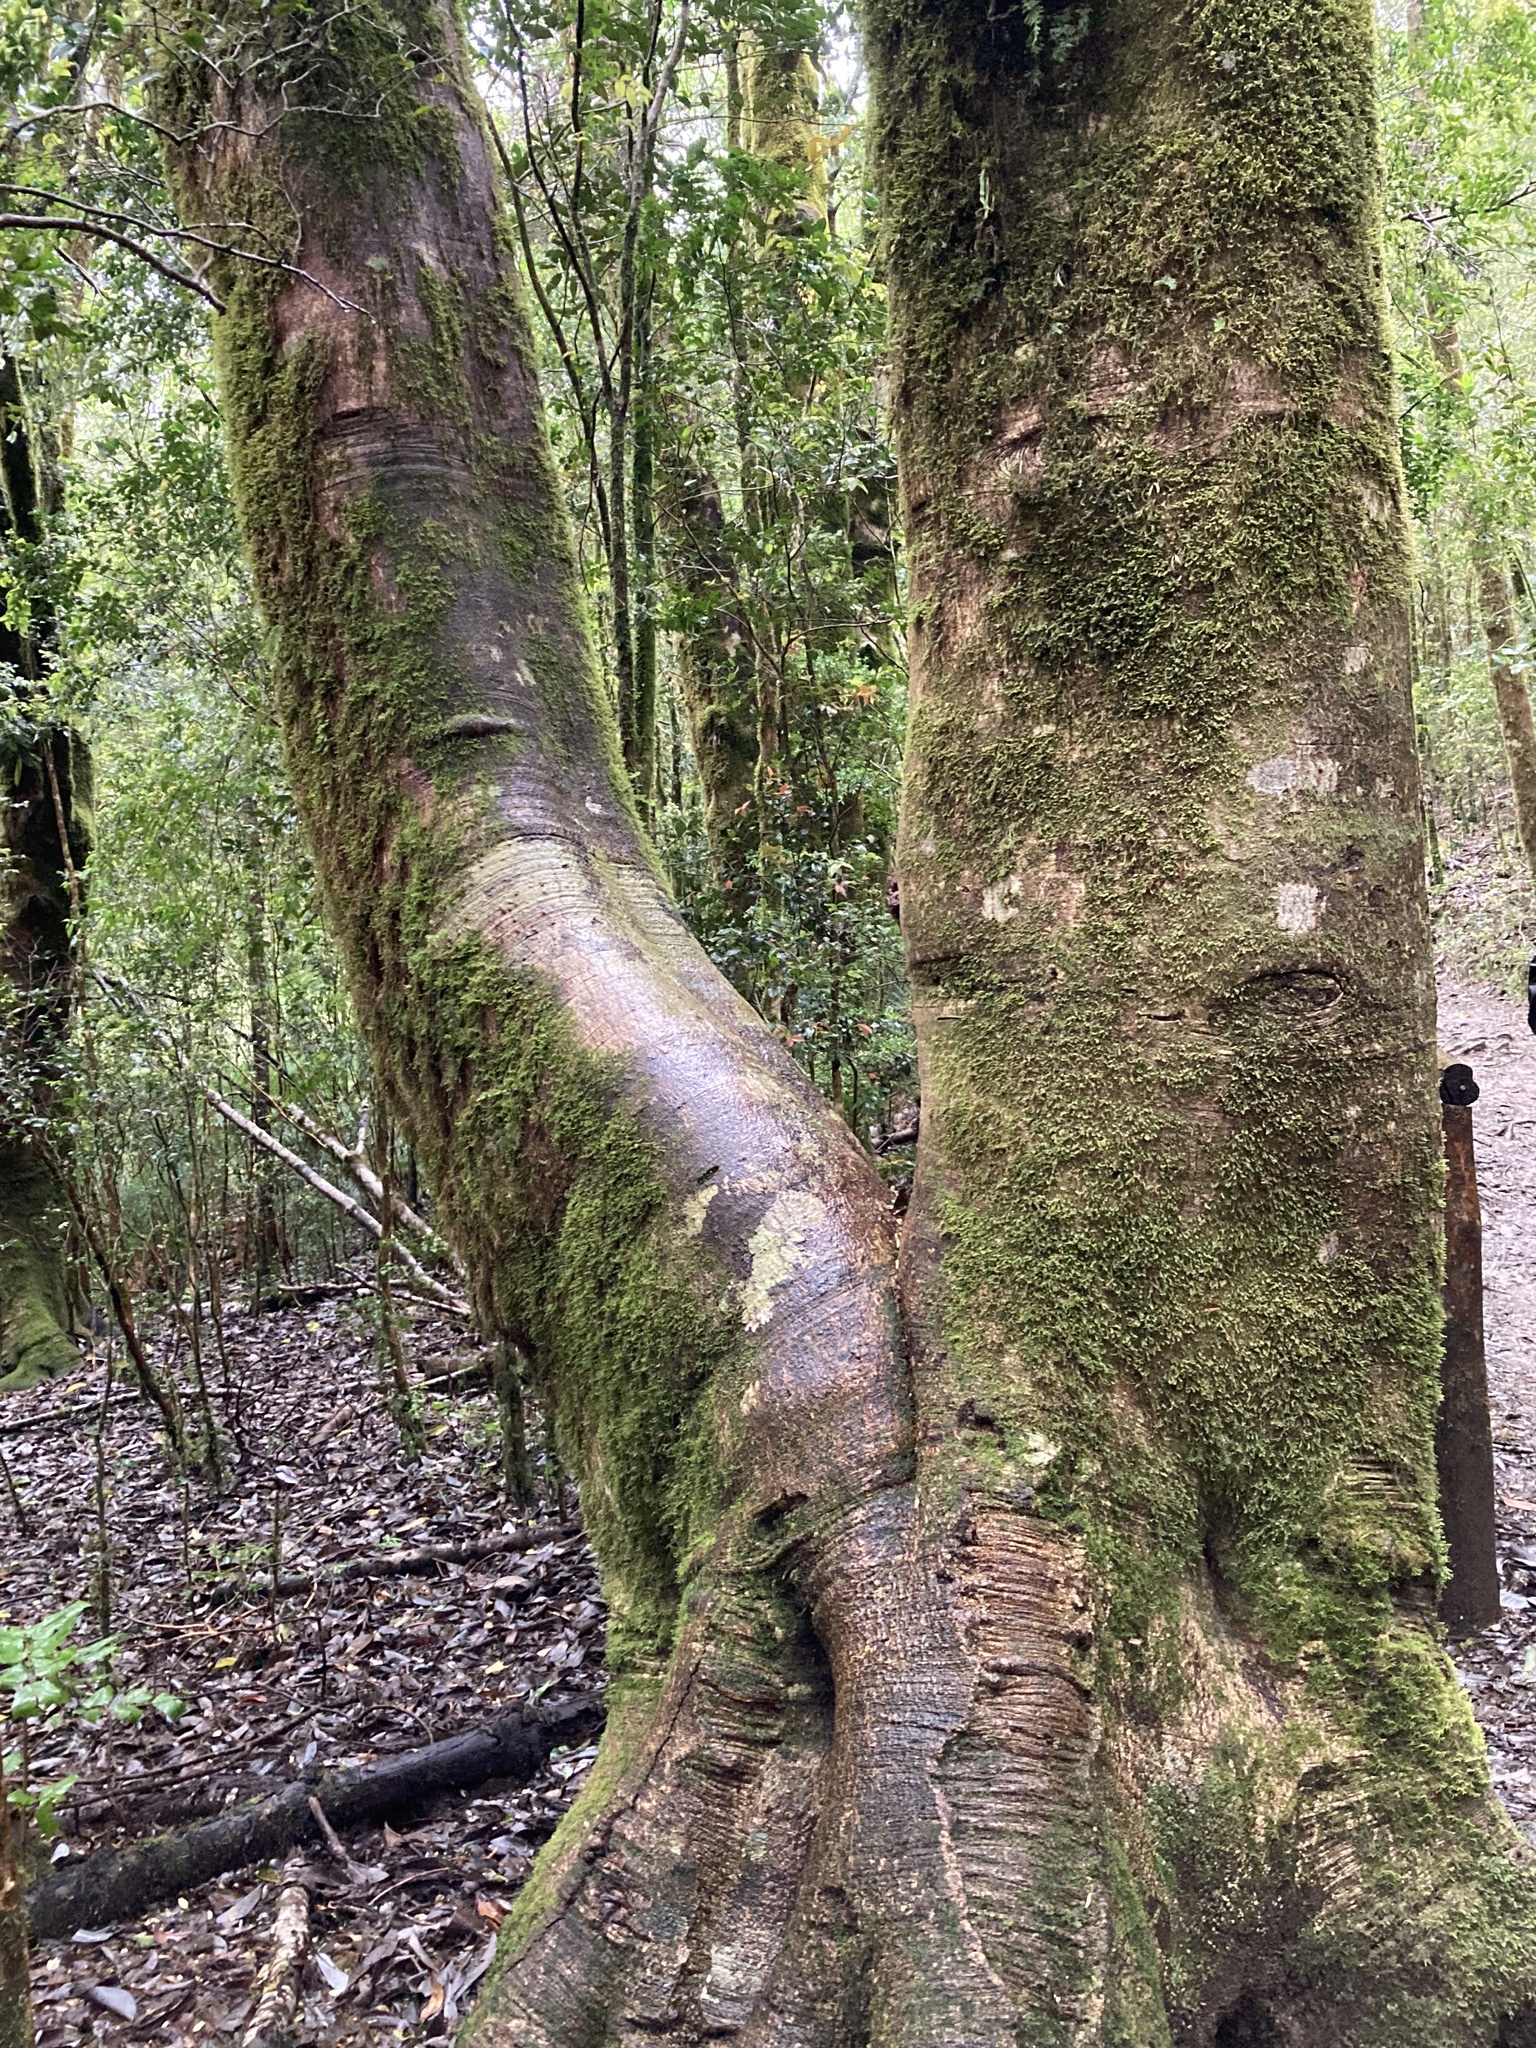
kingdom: Plantae
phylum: Tracheophyta
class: Magnoliopsida
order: Canellales
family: Winteraceae
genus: Drimys
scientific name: Drimys winteri
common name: Winter's-bark
